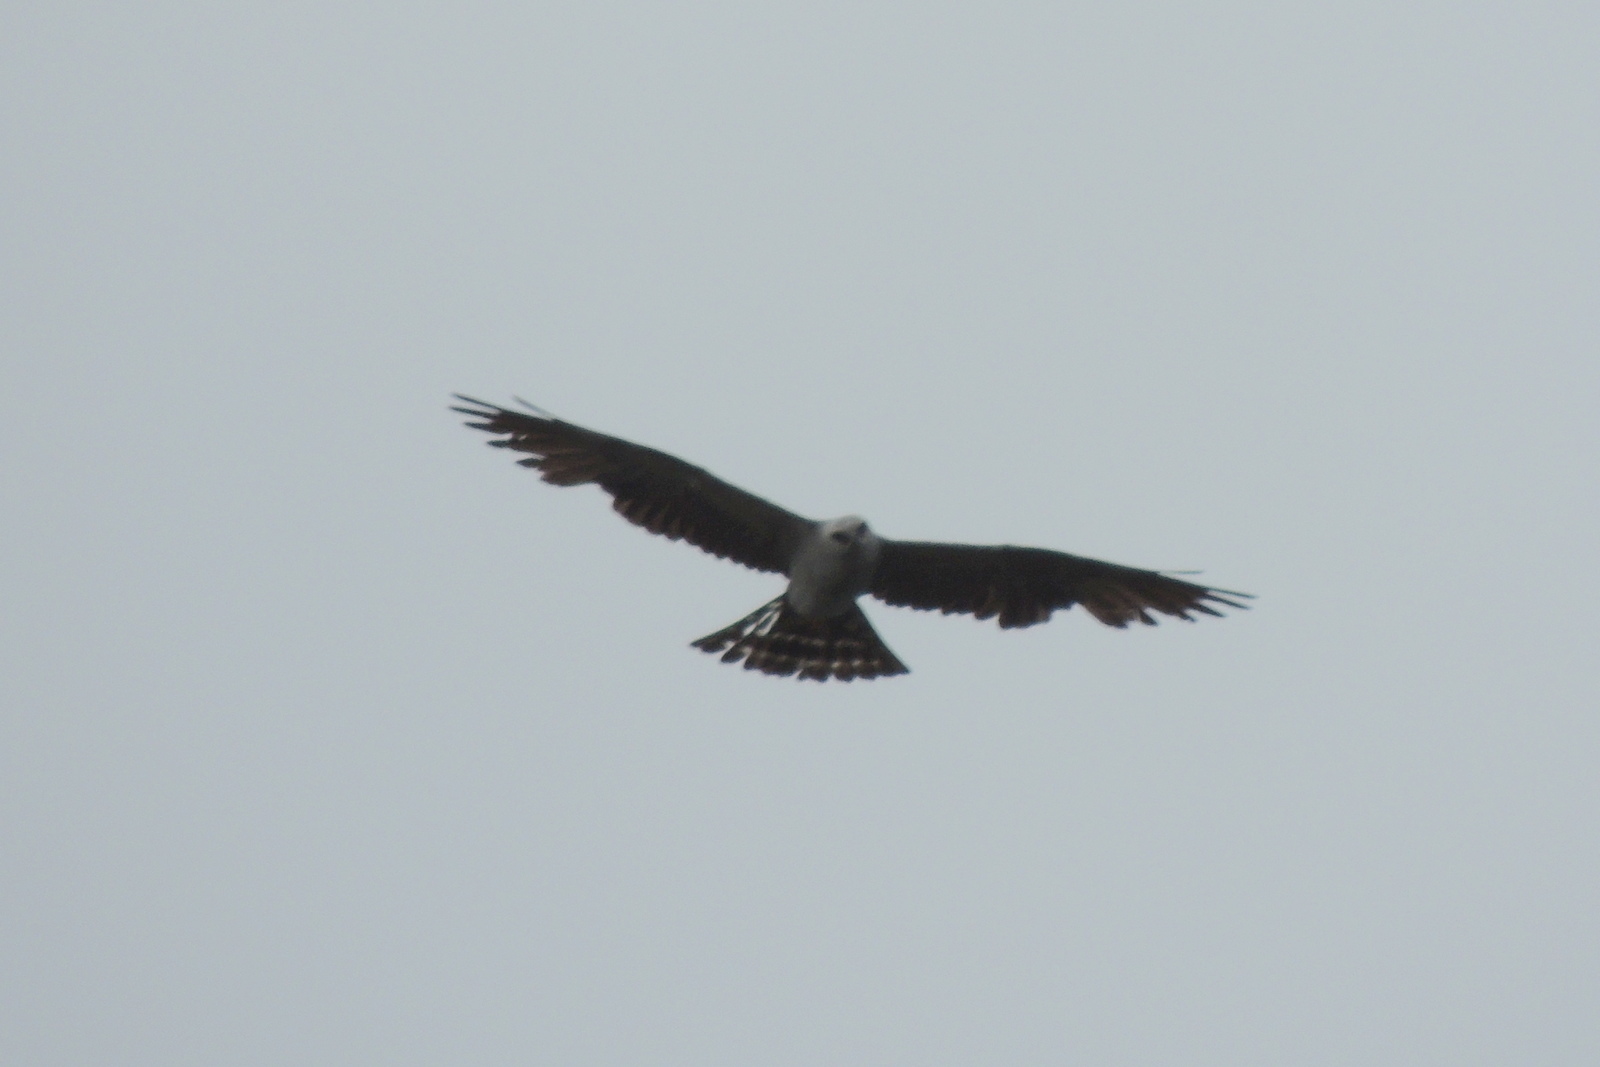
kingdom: Animalia
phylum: Chordata
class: Aves
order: Accipitriformes
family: Accipitridae
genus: Ictinia
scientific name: Ictinia mississippiensis
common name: Mississippi kite
